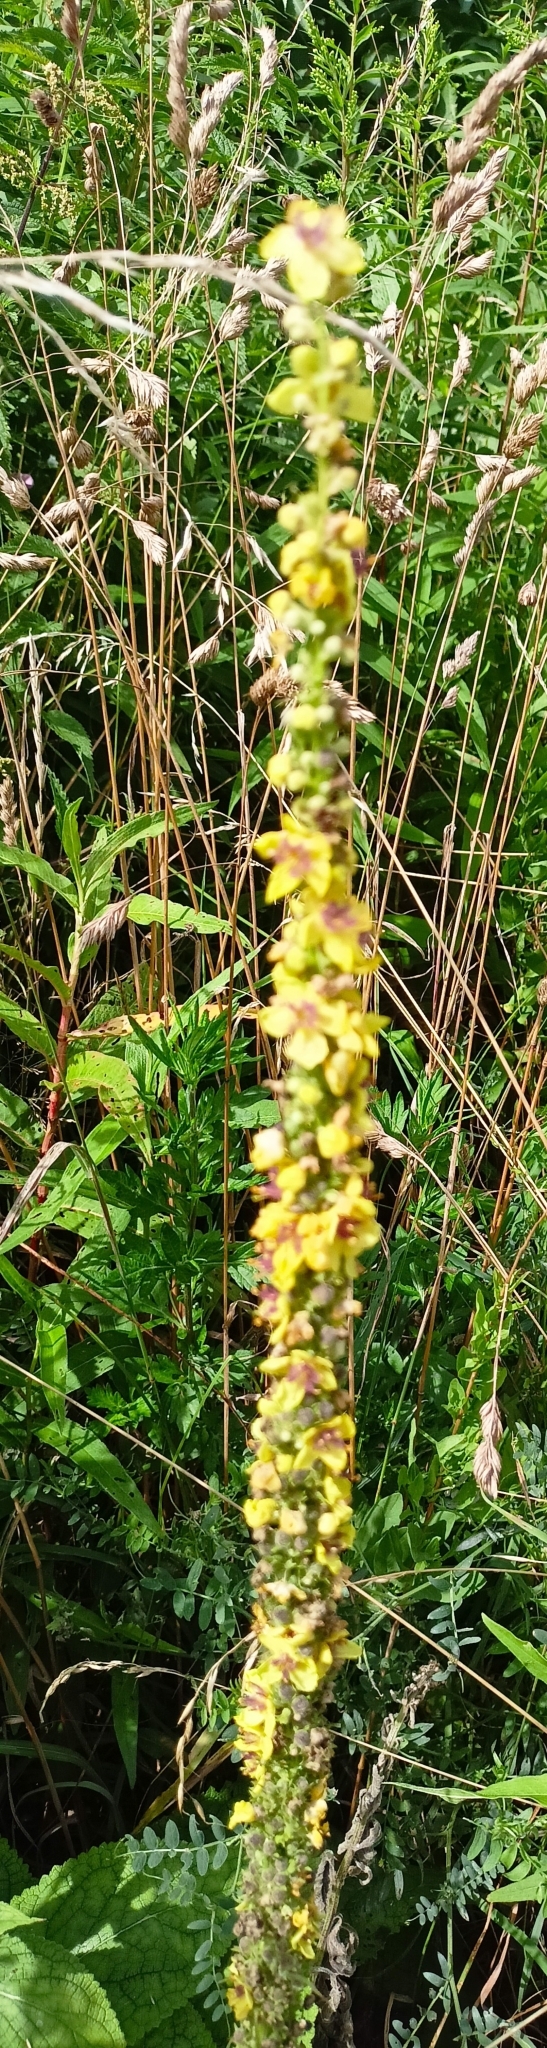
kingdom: Plantae
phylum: Tracheophyta
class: Magnoliopsida
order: Lamiales
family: Scrophulariaceae
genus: Verbascum
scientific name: Verbascum nigrum
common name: Dark mullein
